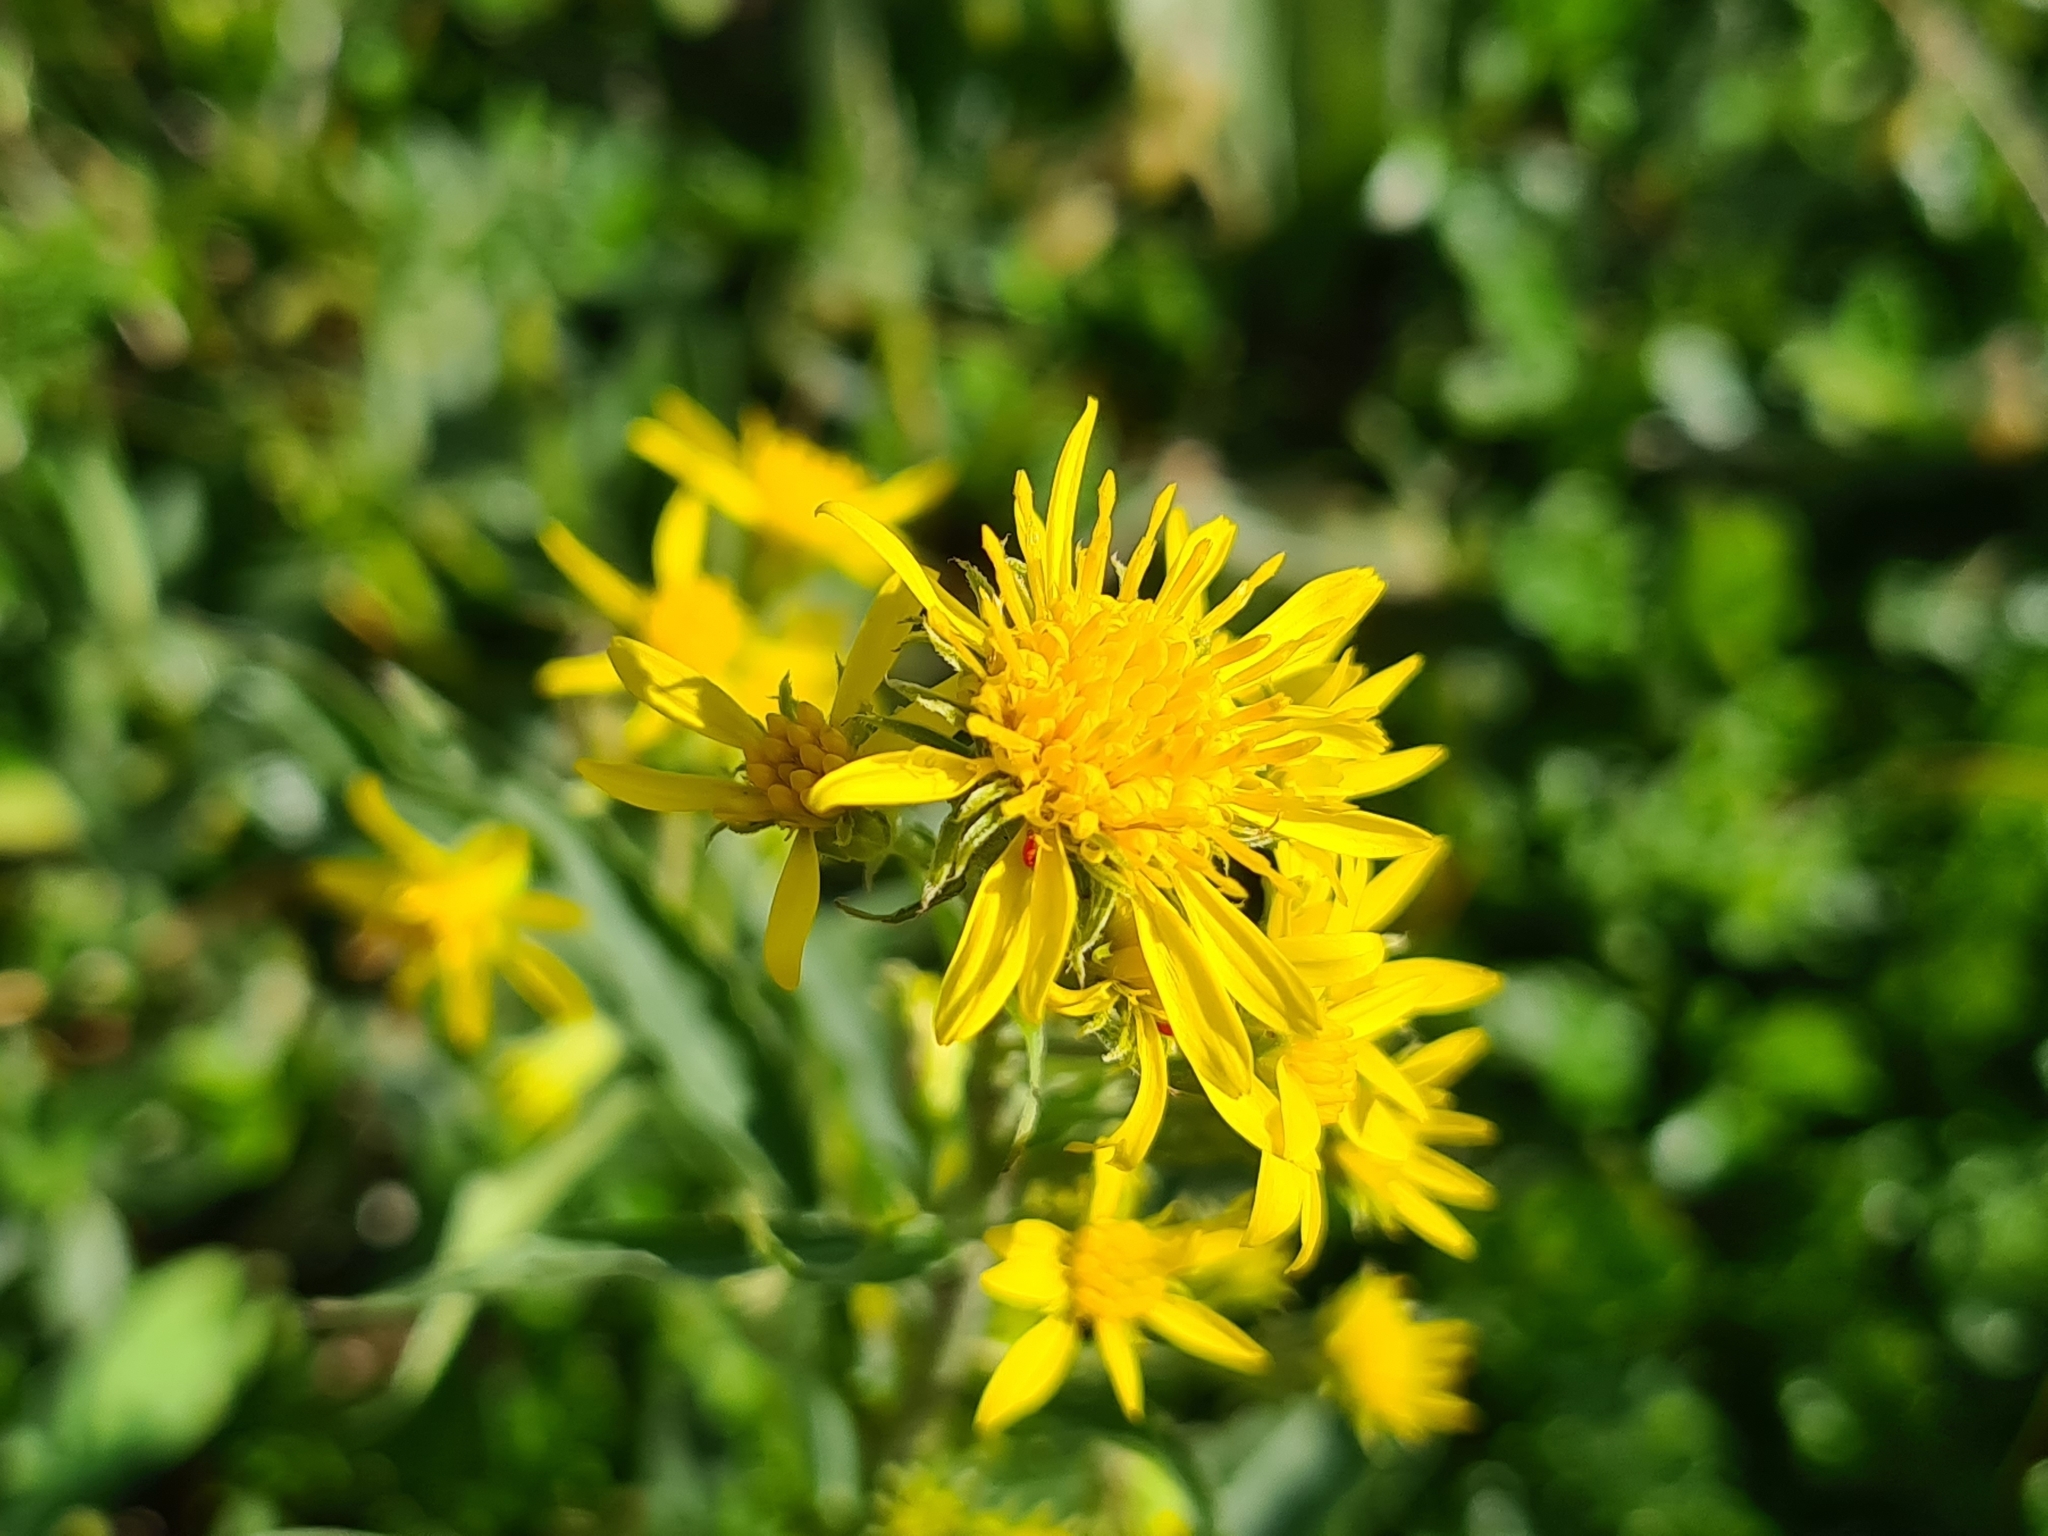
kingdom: Plantae
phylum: Tracheophyta
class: Magnoliopsida
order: Asterales
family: Asteraceae
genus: Solidago
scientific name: Solidago virgaurea
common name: Goldenrod
